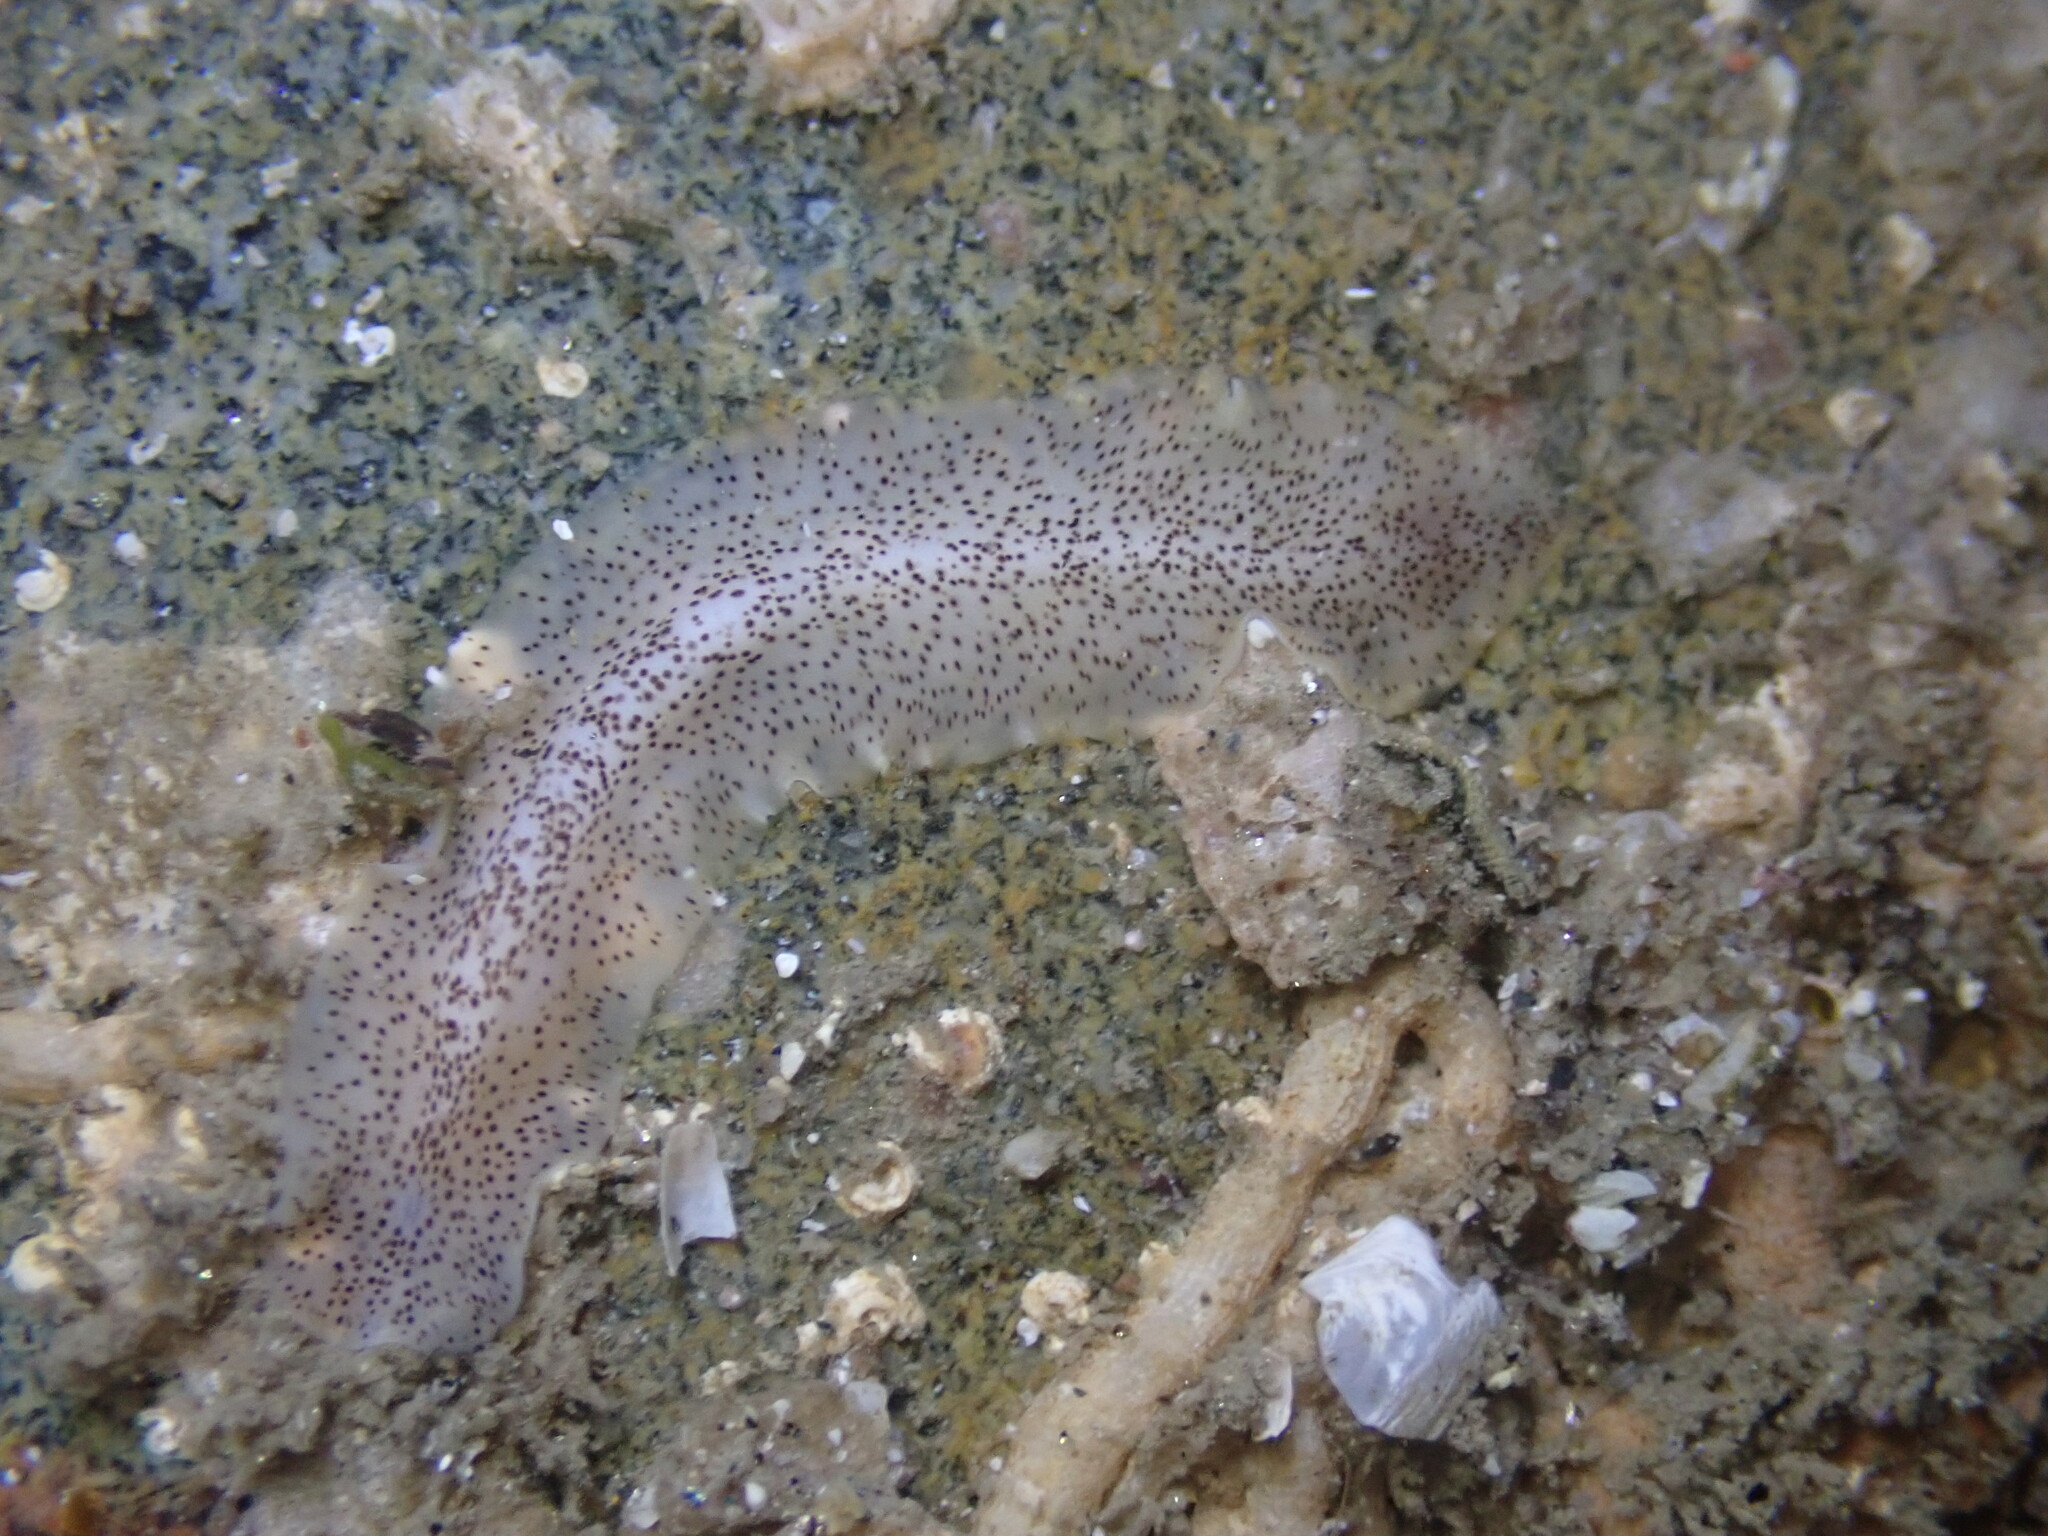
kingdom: Animalia
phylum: Platyhelminthes
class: Turbellaria
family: Prosthiostomidae
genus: Enchiridium
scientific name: Enchiridium punctatum
